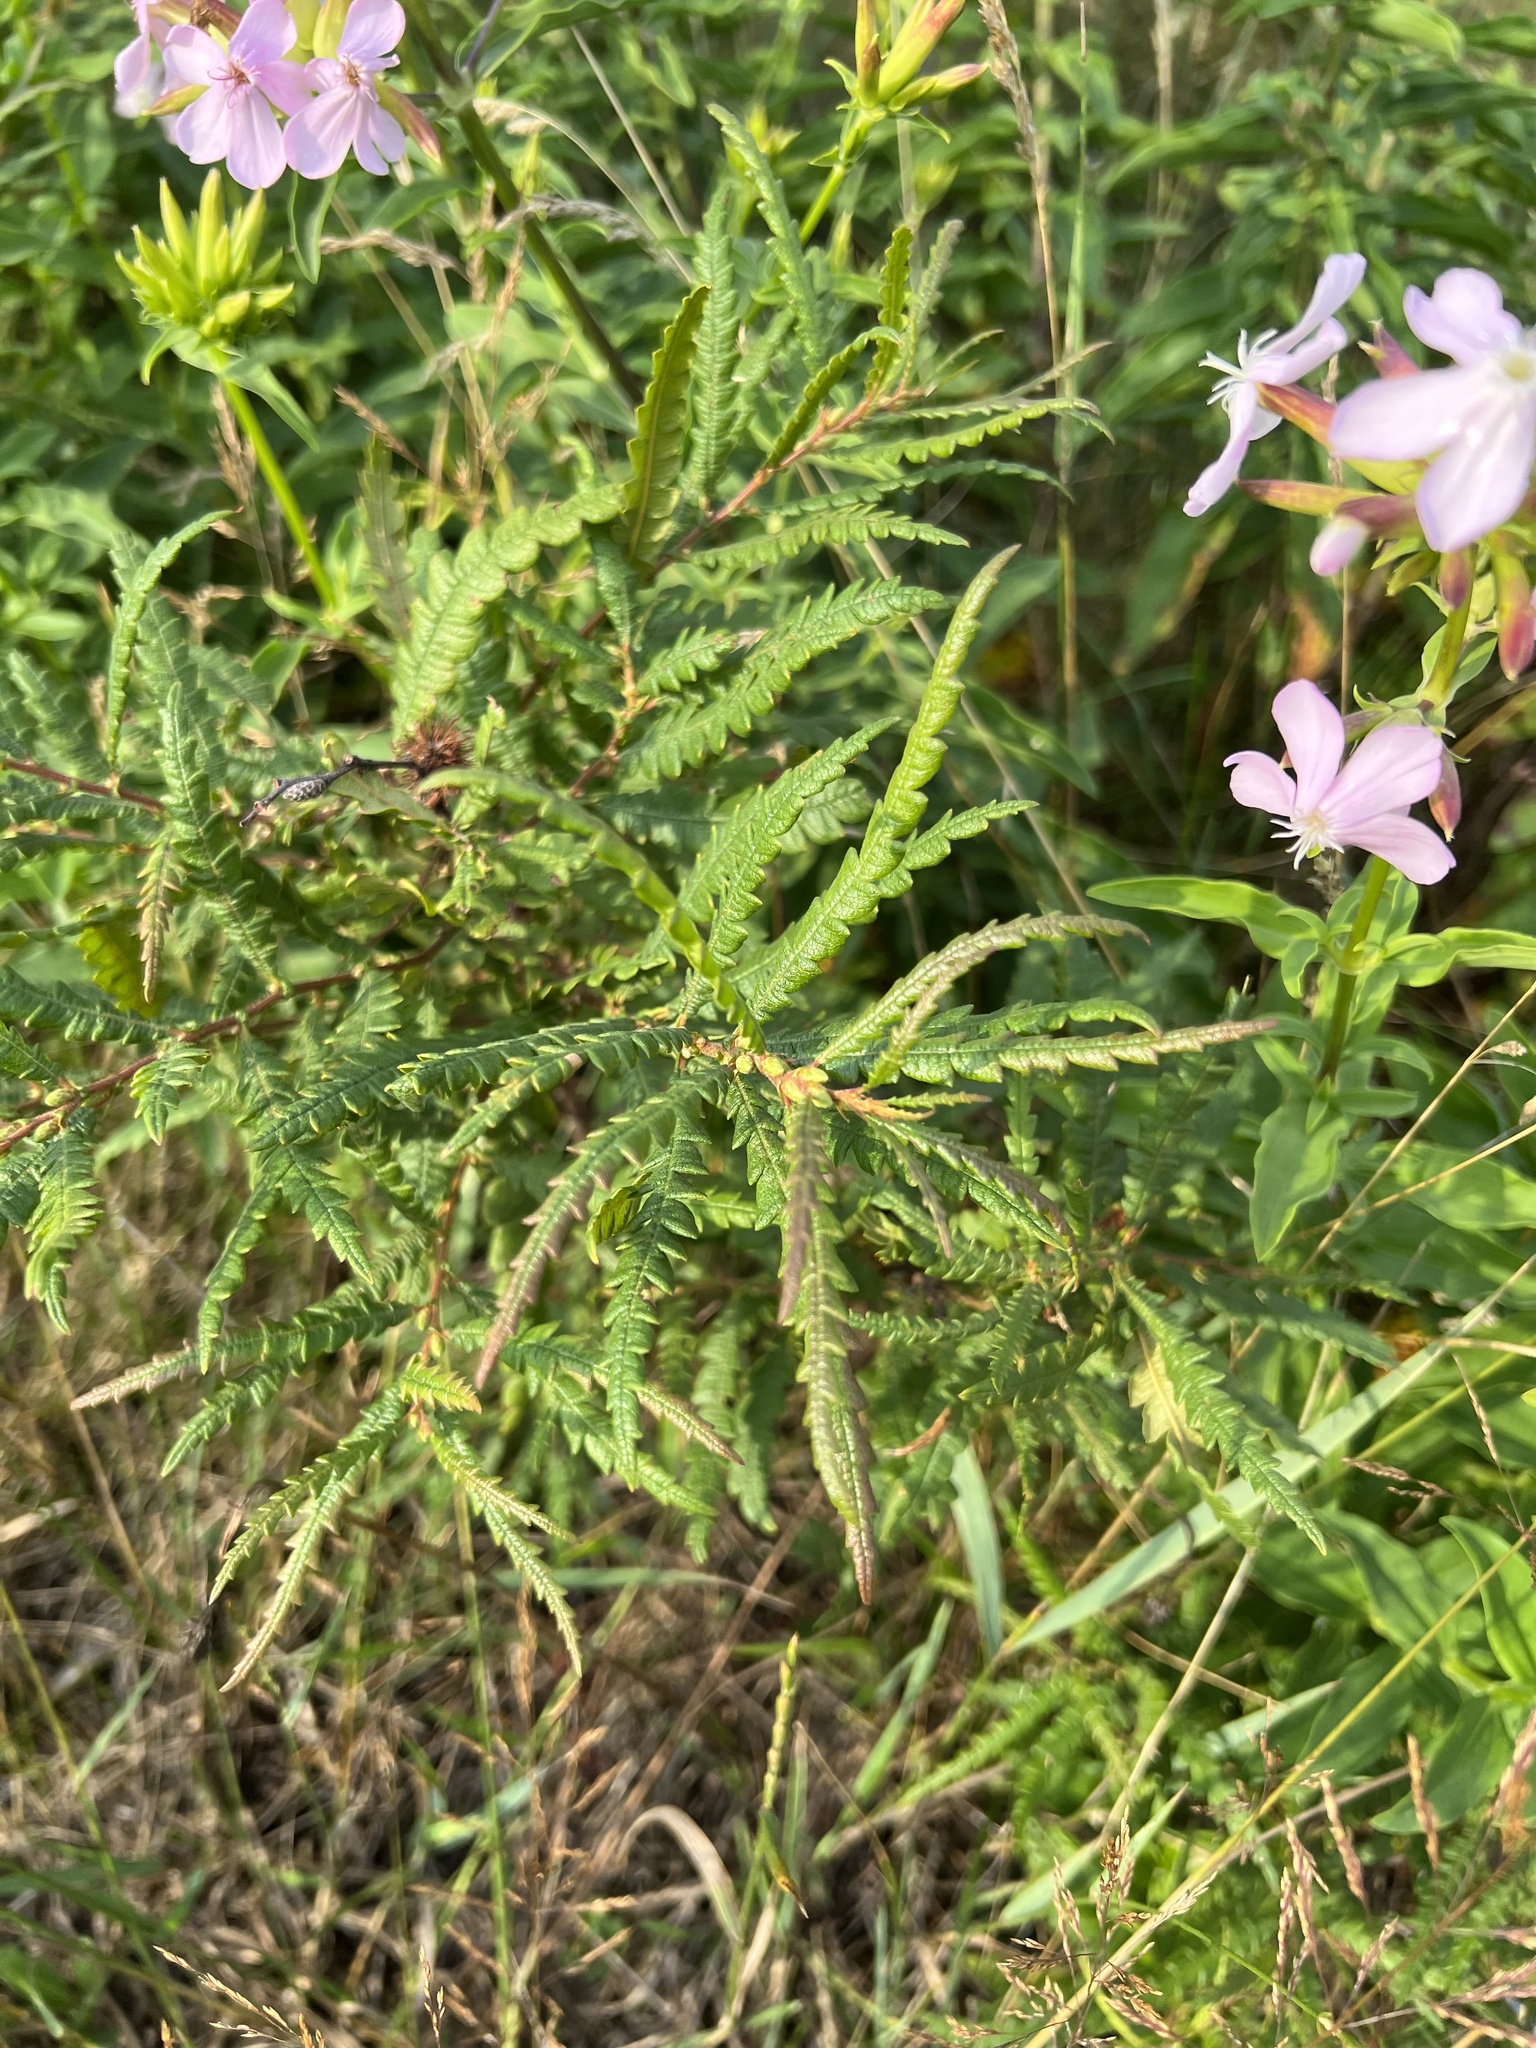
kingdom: Plantae
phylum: Tracheophyta
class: Magnoliopsida
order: Fagales
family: Myricaceae
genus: Comptonia
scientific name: Comptonia peregrina
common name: Sweet-fern
